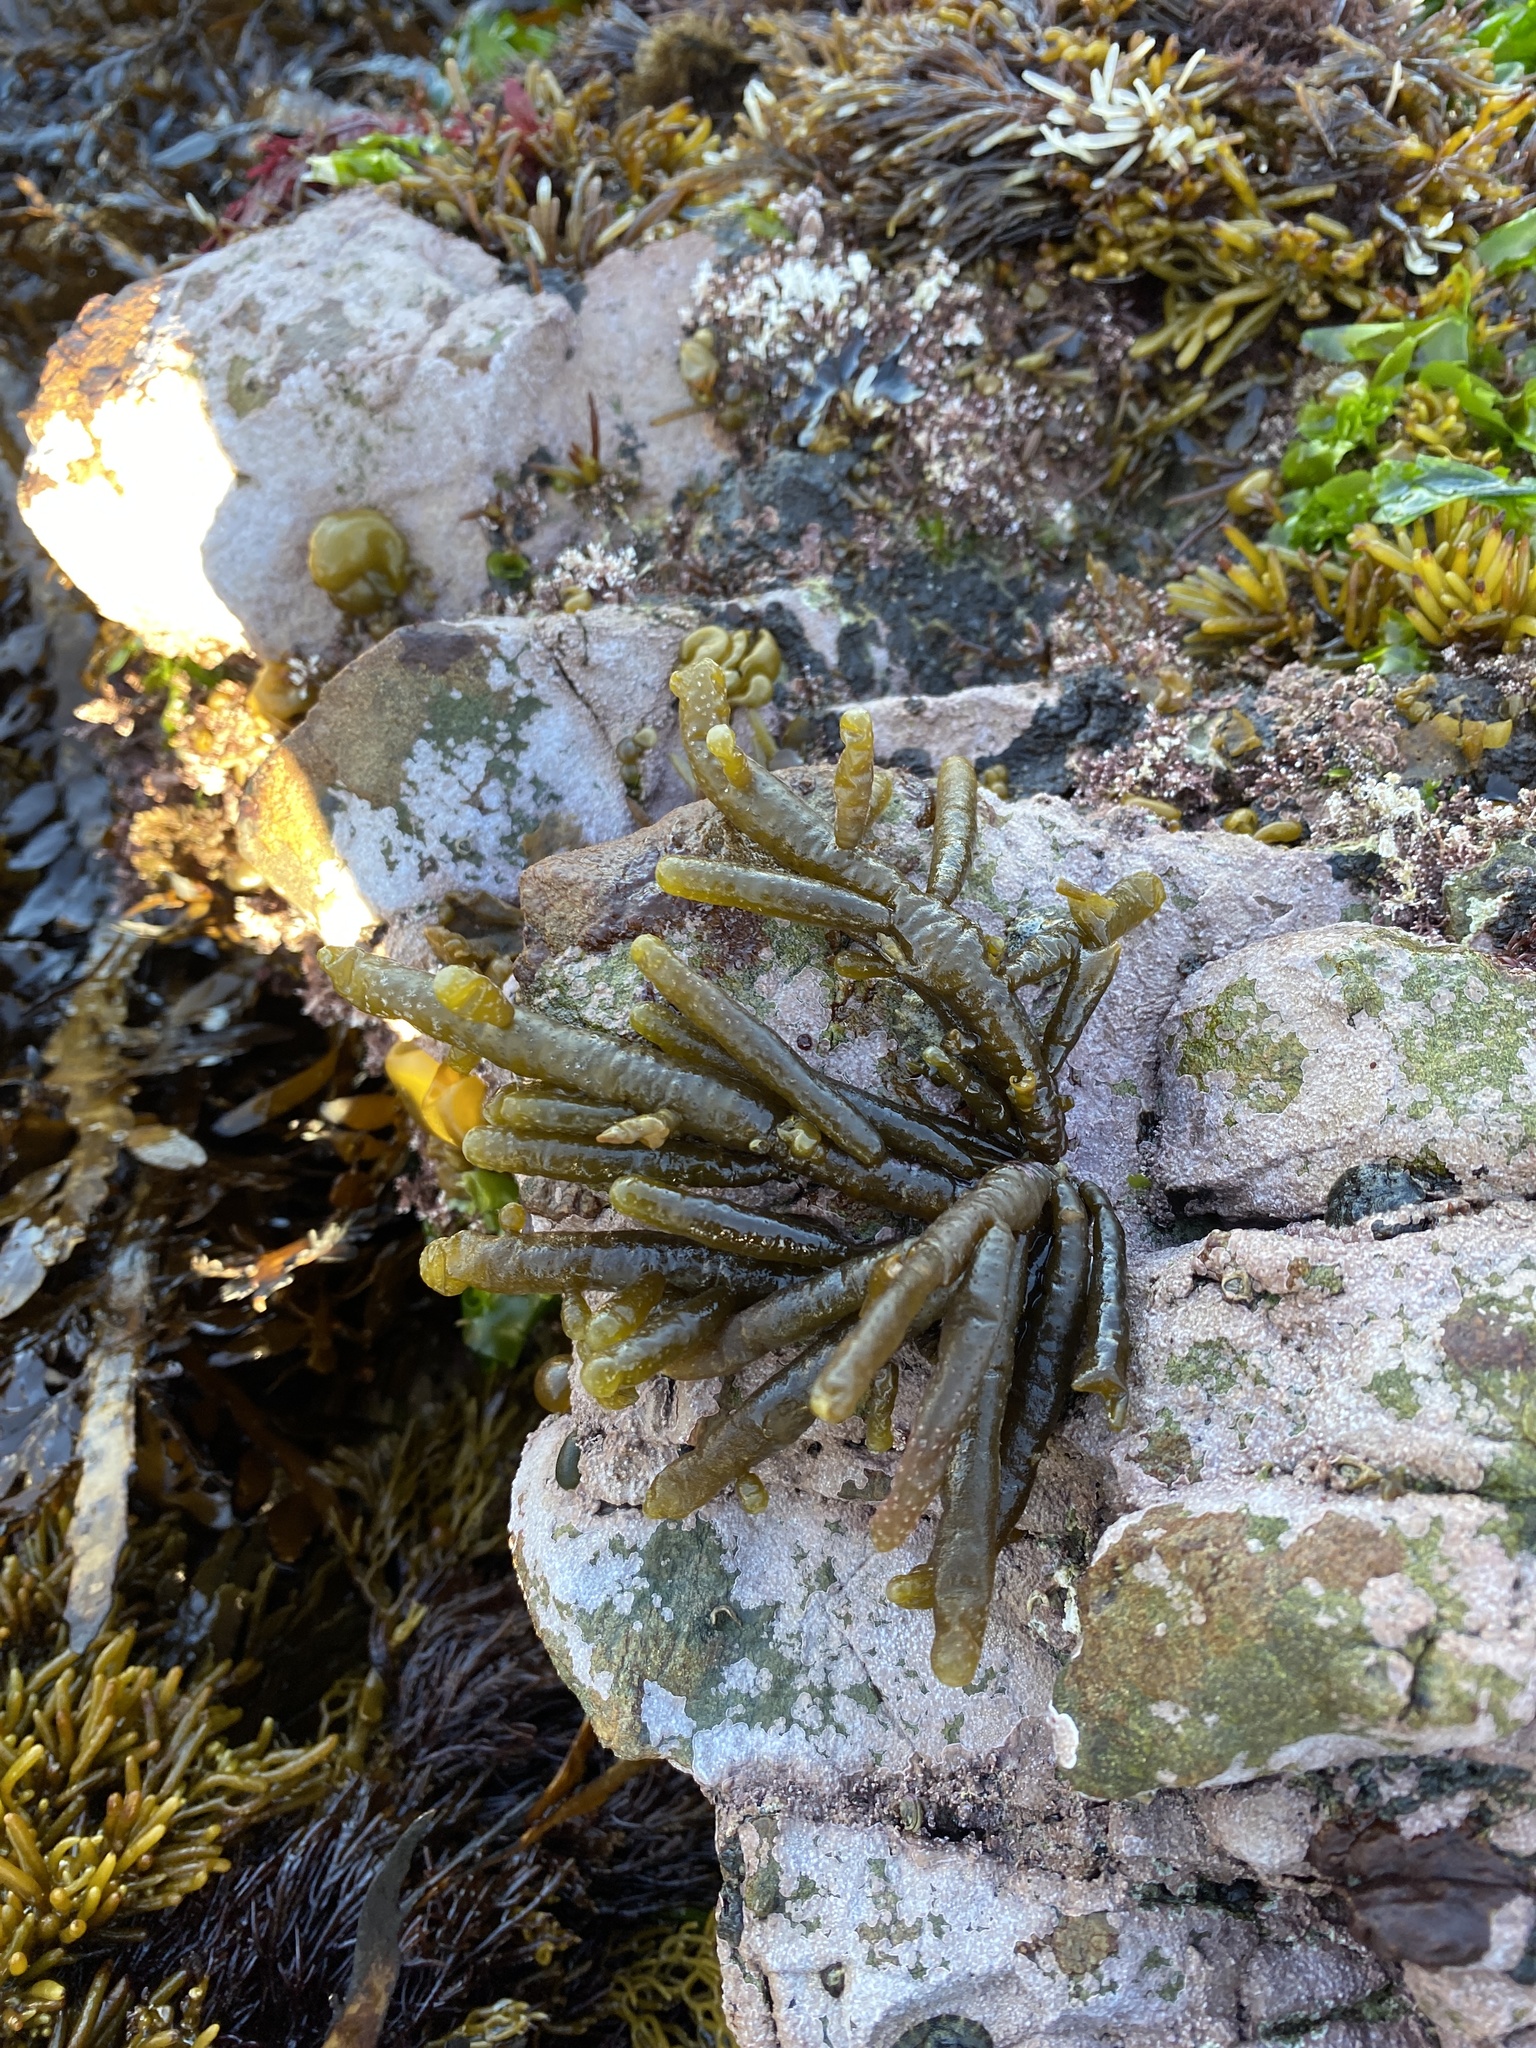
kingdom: Chromista
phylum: Ochrophyta
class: Phaeophyceae
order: Scytothamnales
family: Splachnidiaceae
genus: Splachnidium
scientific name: Splachnidium rugosum
